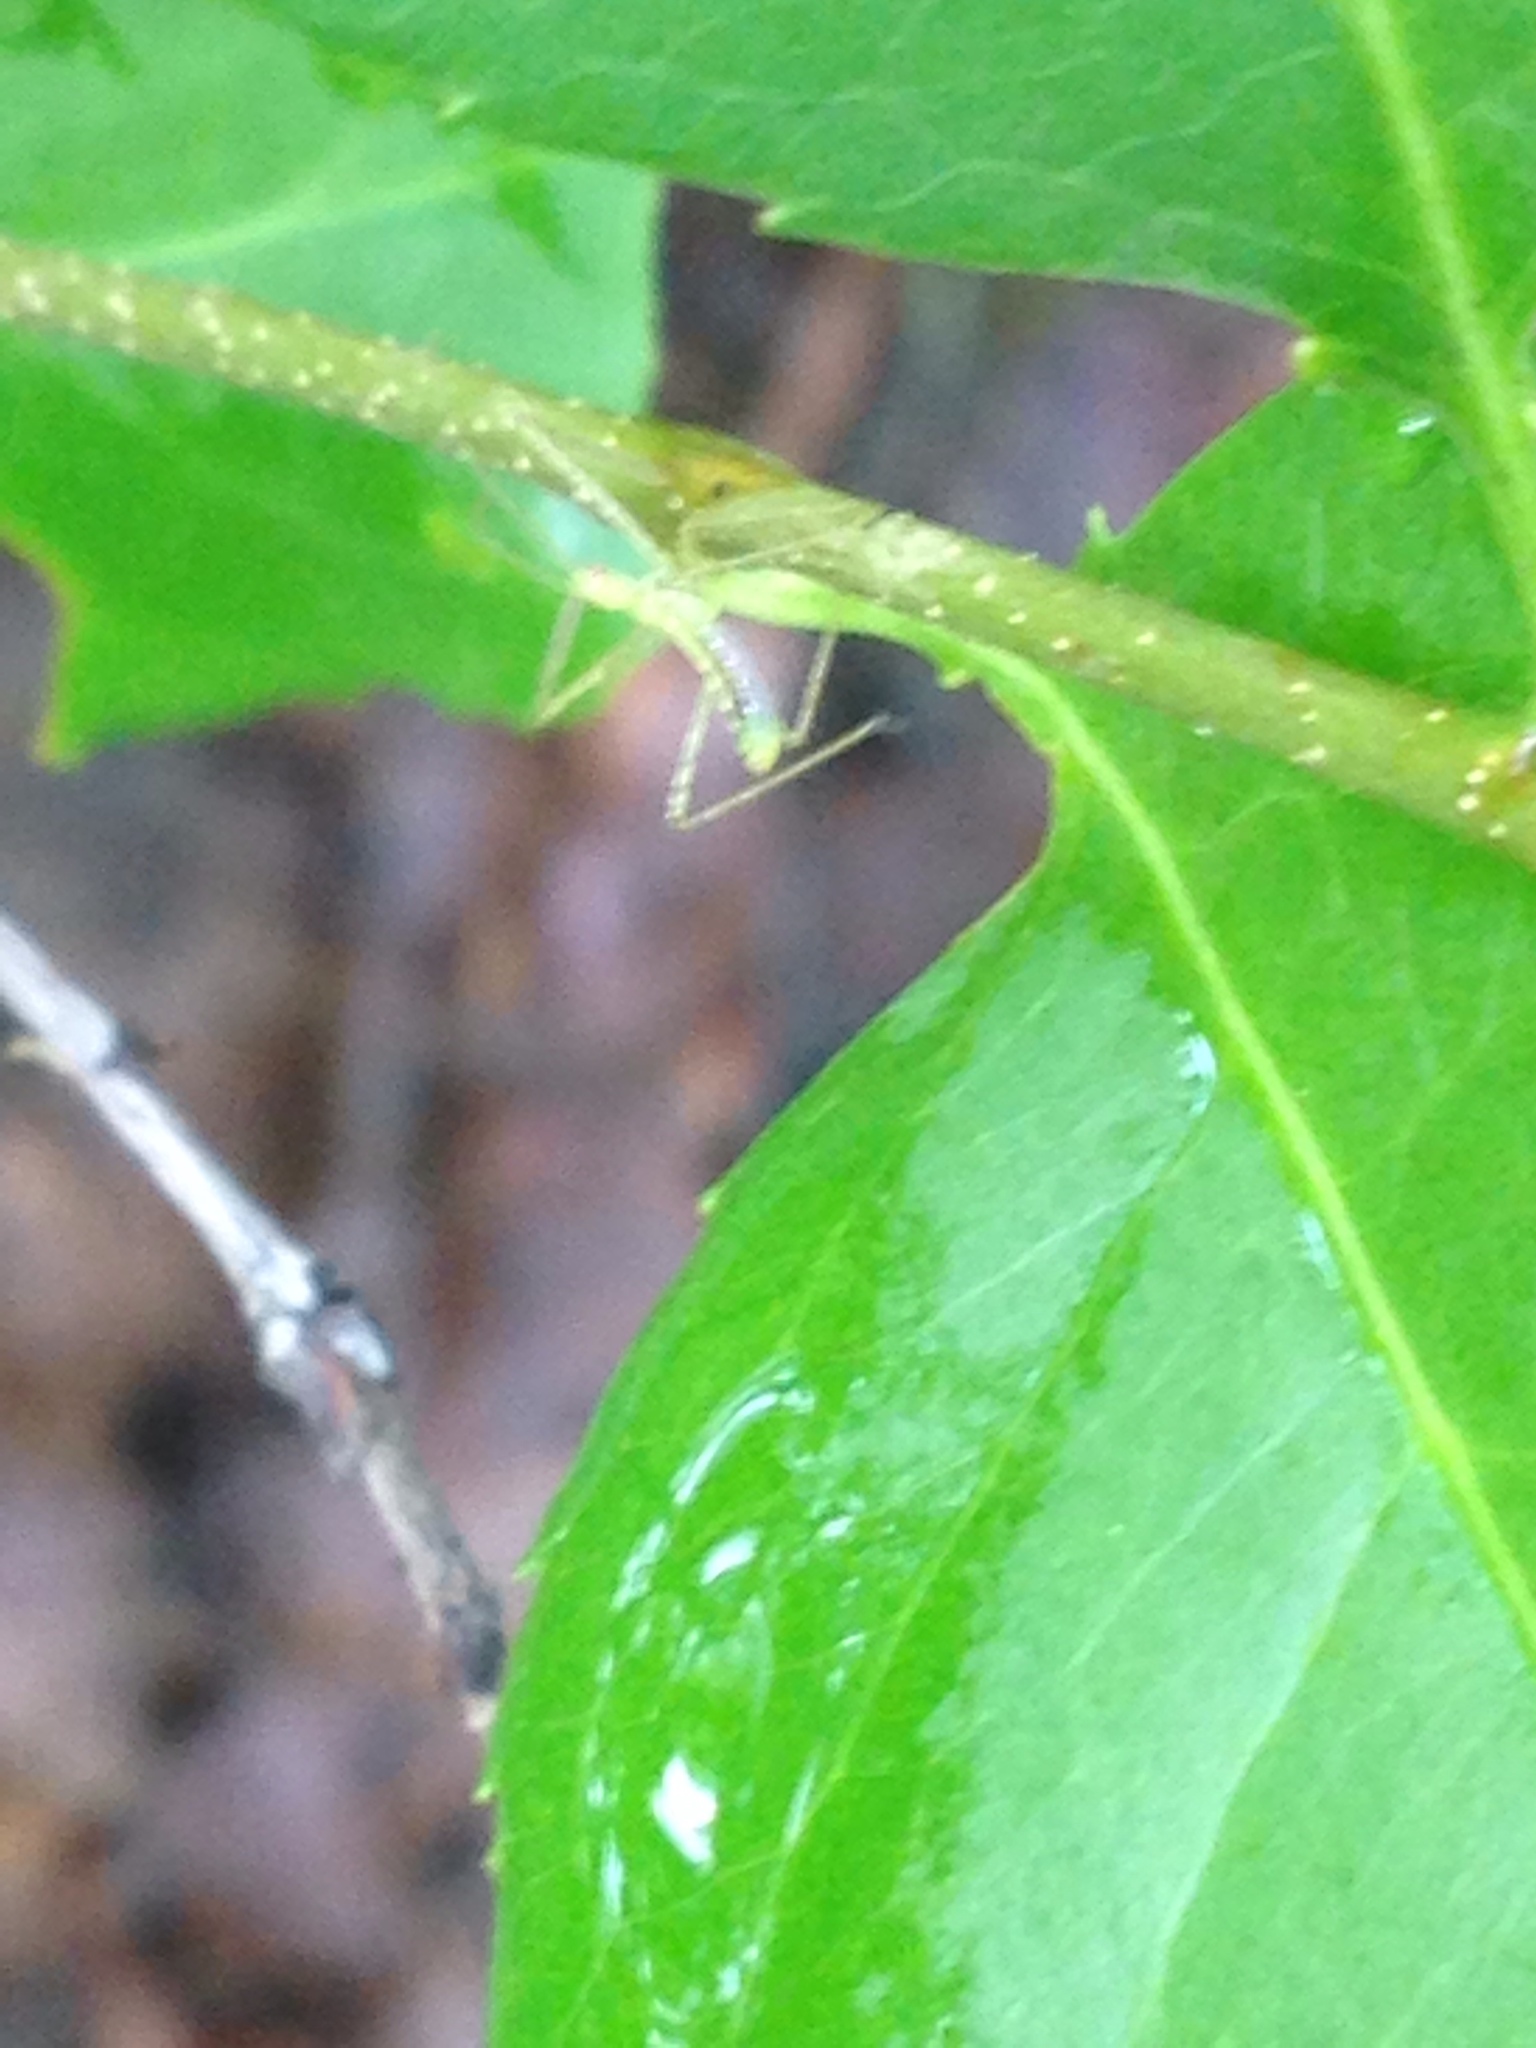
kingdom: Animalia
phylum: Arthropoda
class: Insecta
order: Hemiptera
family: Reduviidae
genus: Zelus
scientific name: Zelus luridus
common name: Pale green assassin bug
